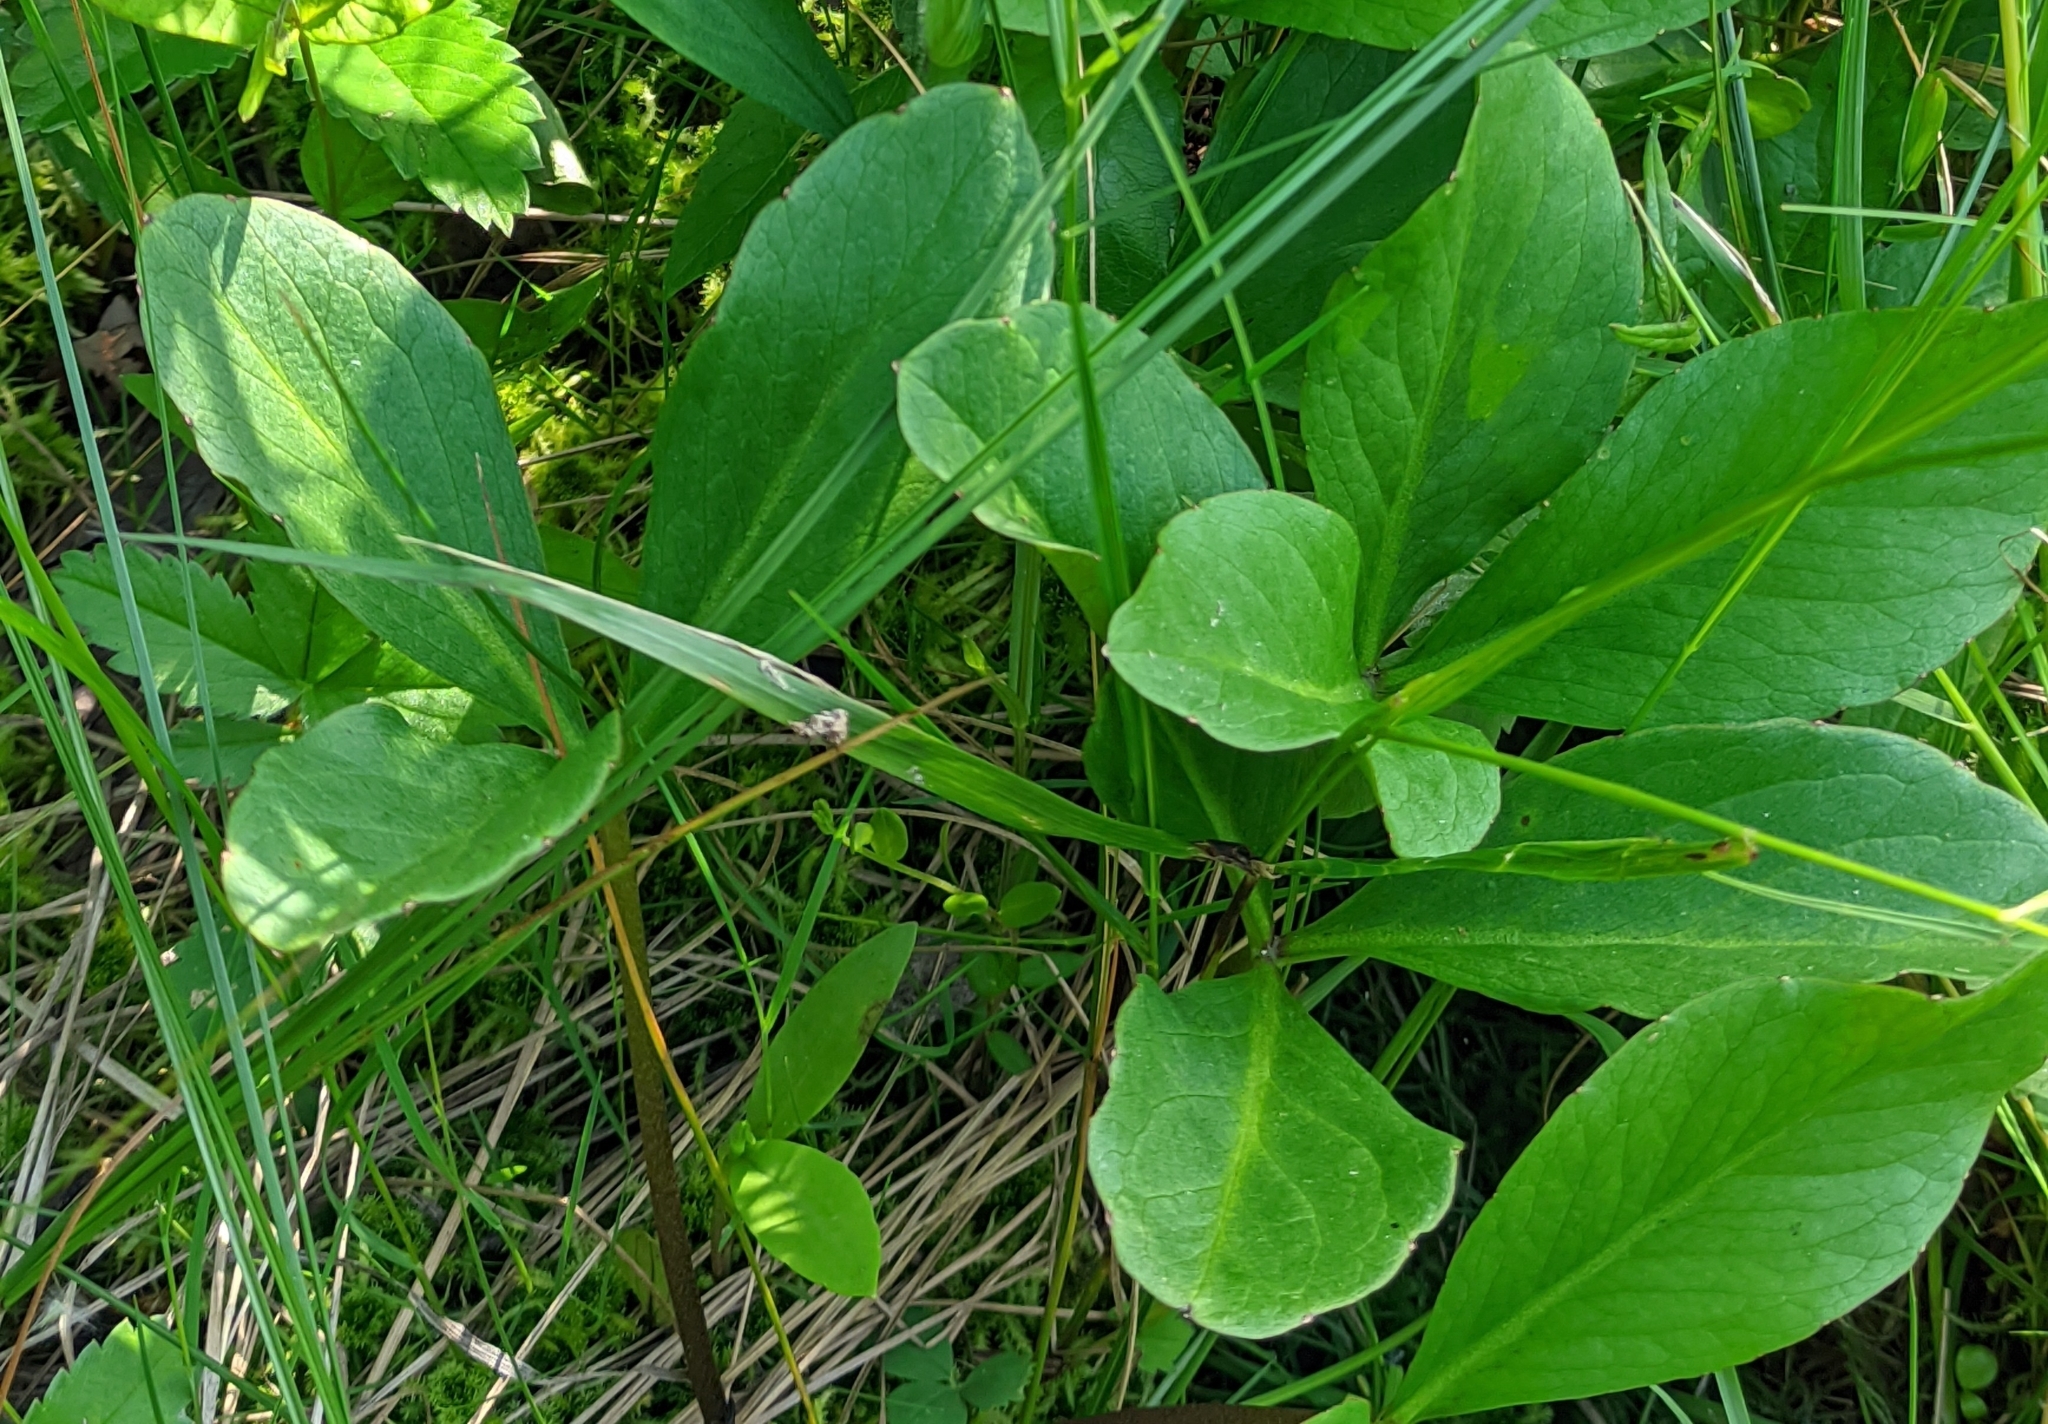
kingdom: Plantae
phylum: Tracheophyta
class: Magnoliopsida
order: Asterales
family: Menyanthaceae
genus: Menyanthes
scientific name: Menyanthes trifoliata
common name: Bogbean
